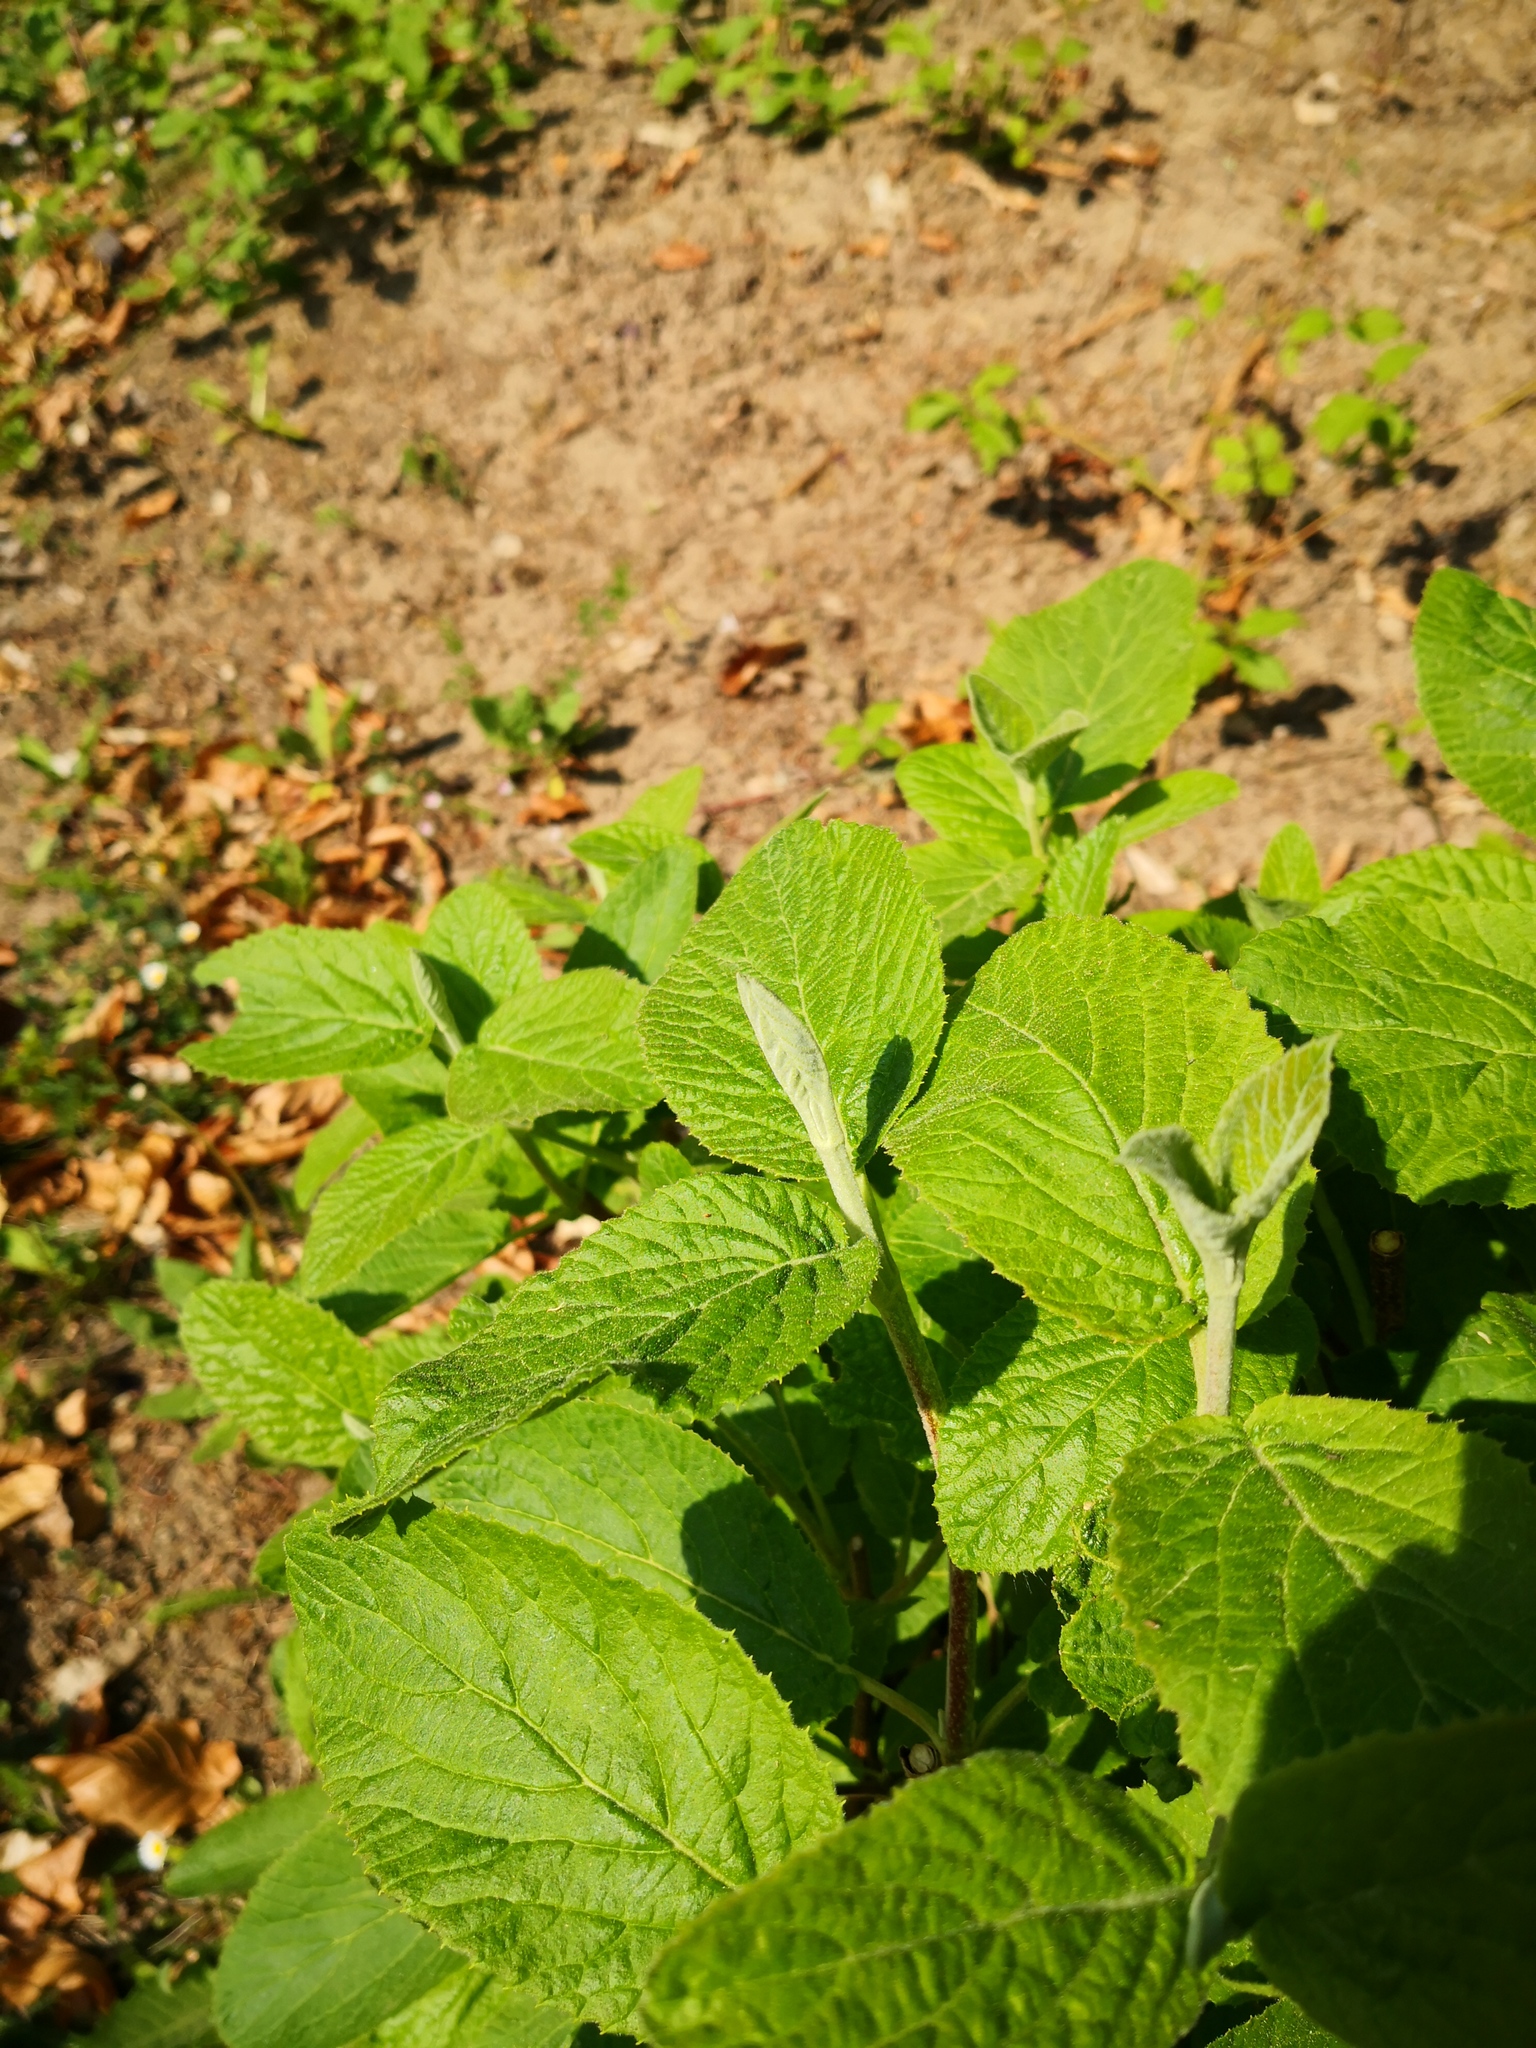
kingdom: Plantae
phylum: Tracheophyta
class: Magnoliopsida
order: Dipsacales
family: Viburnaceae
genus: Viburnum
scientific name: Viburnum lantana
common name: Wayfaring tree
